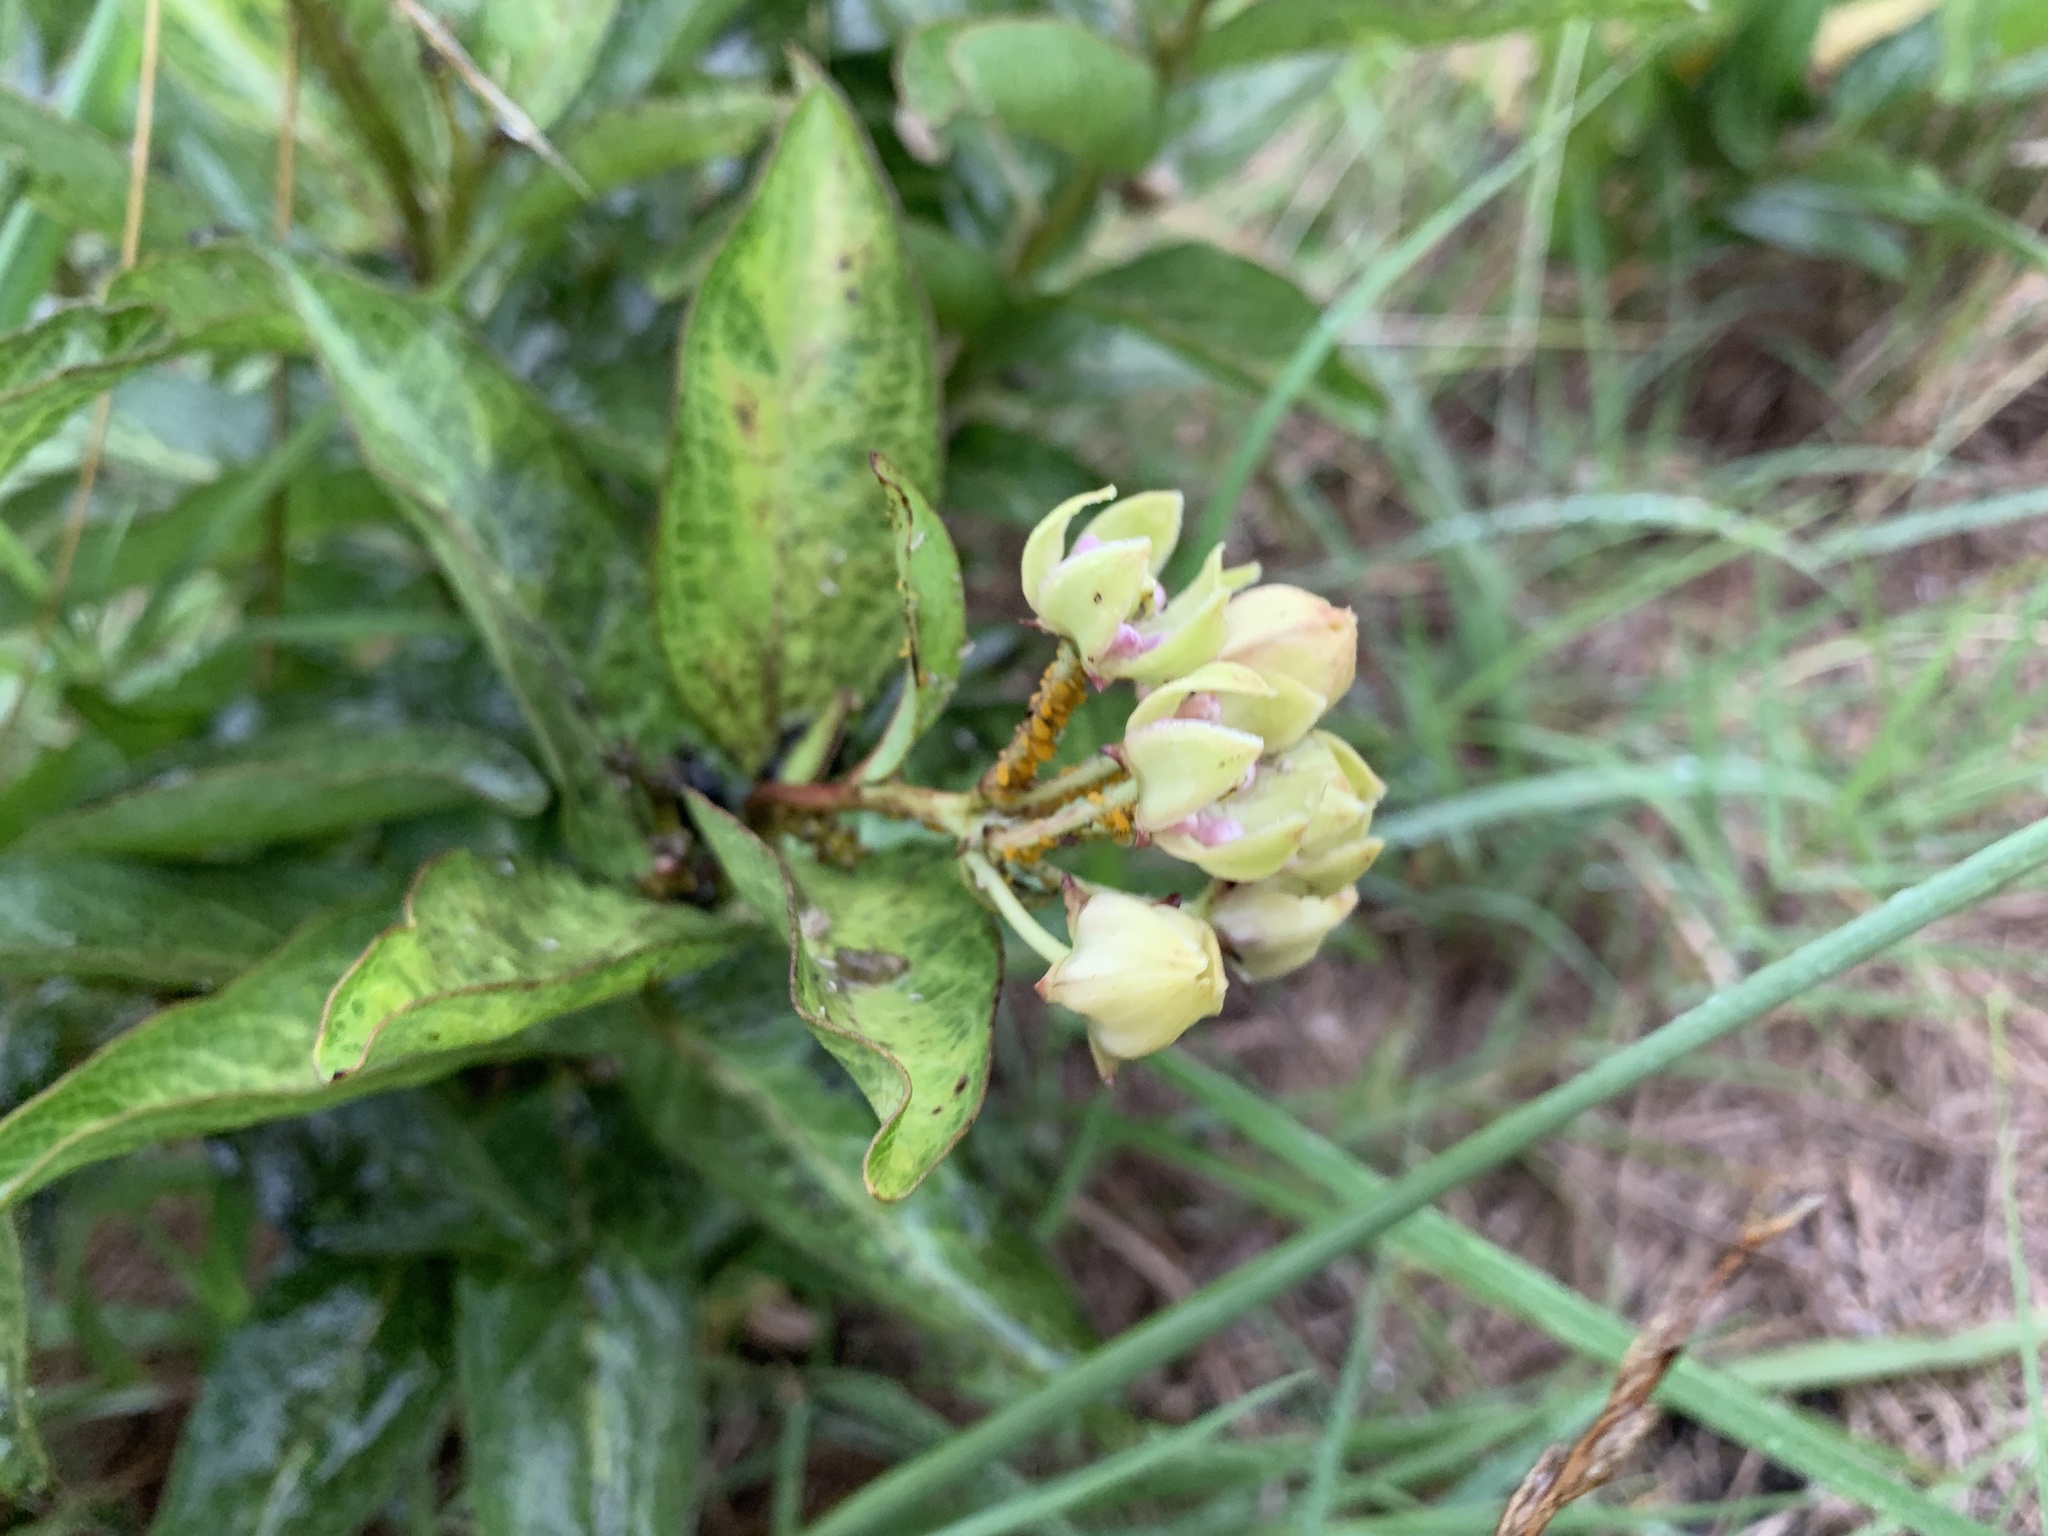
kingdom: Plantae
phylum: Tracheophyta
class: Magnoliopsida
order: Gentianales
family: Apocynaceae
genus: Asclepias
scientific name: Asclepias viridis
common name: Antelope-horns
